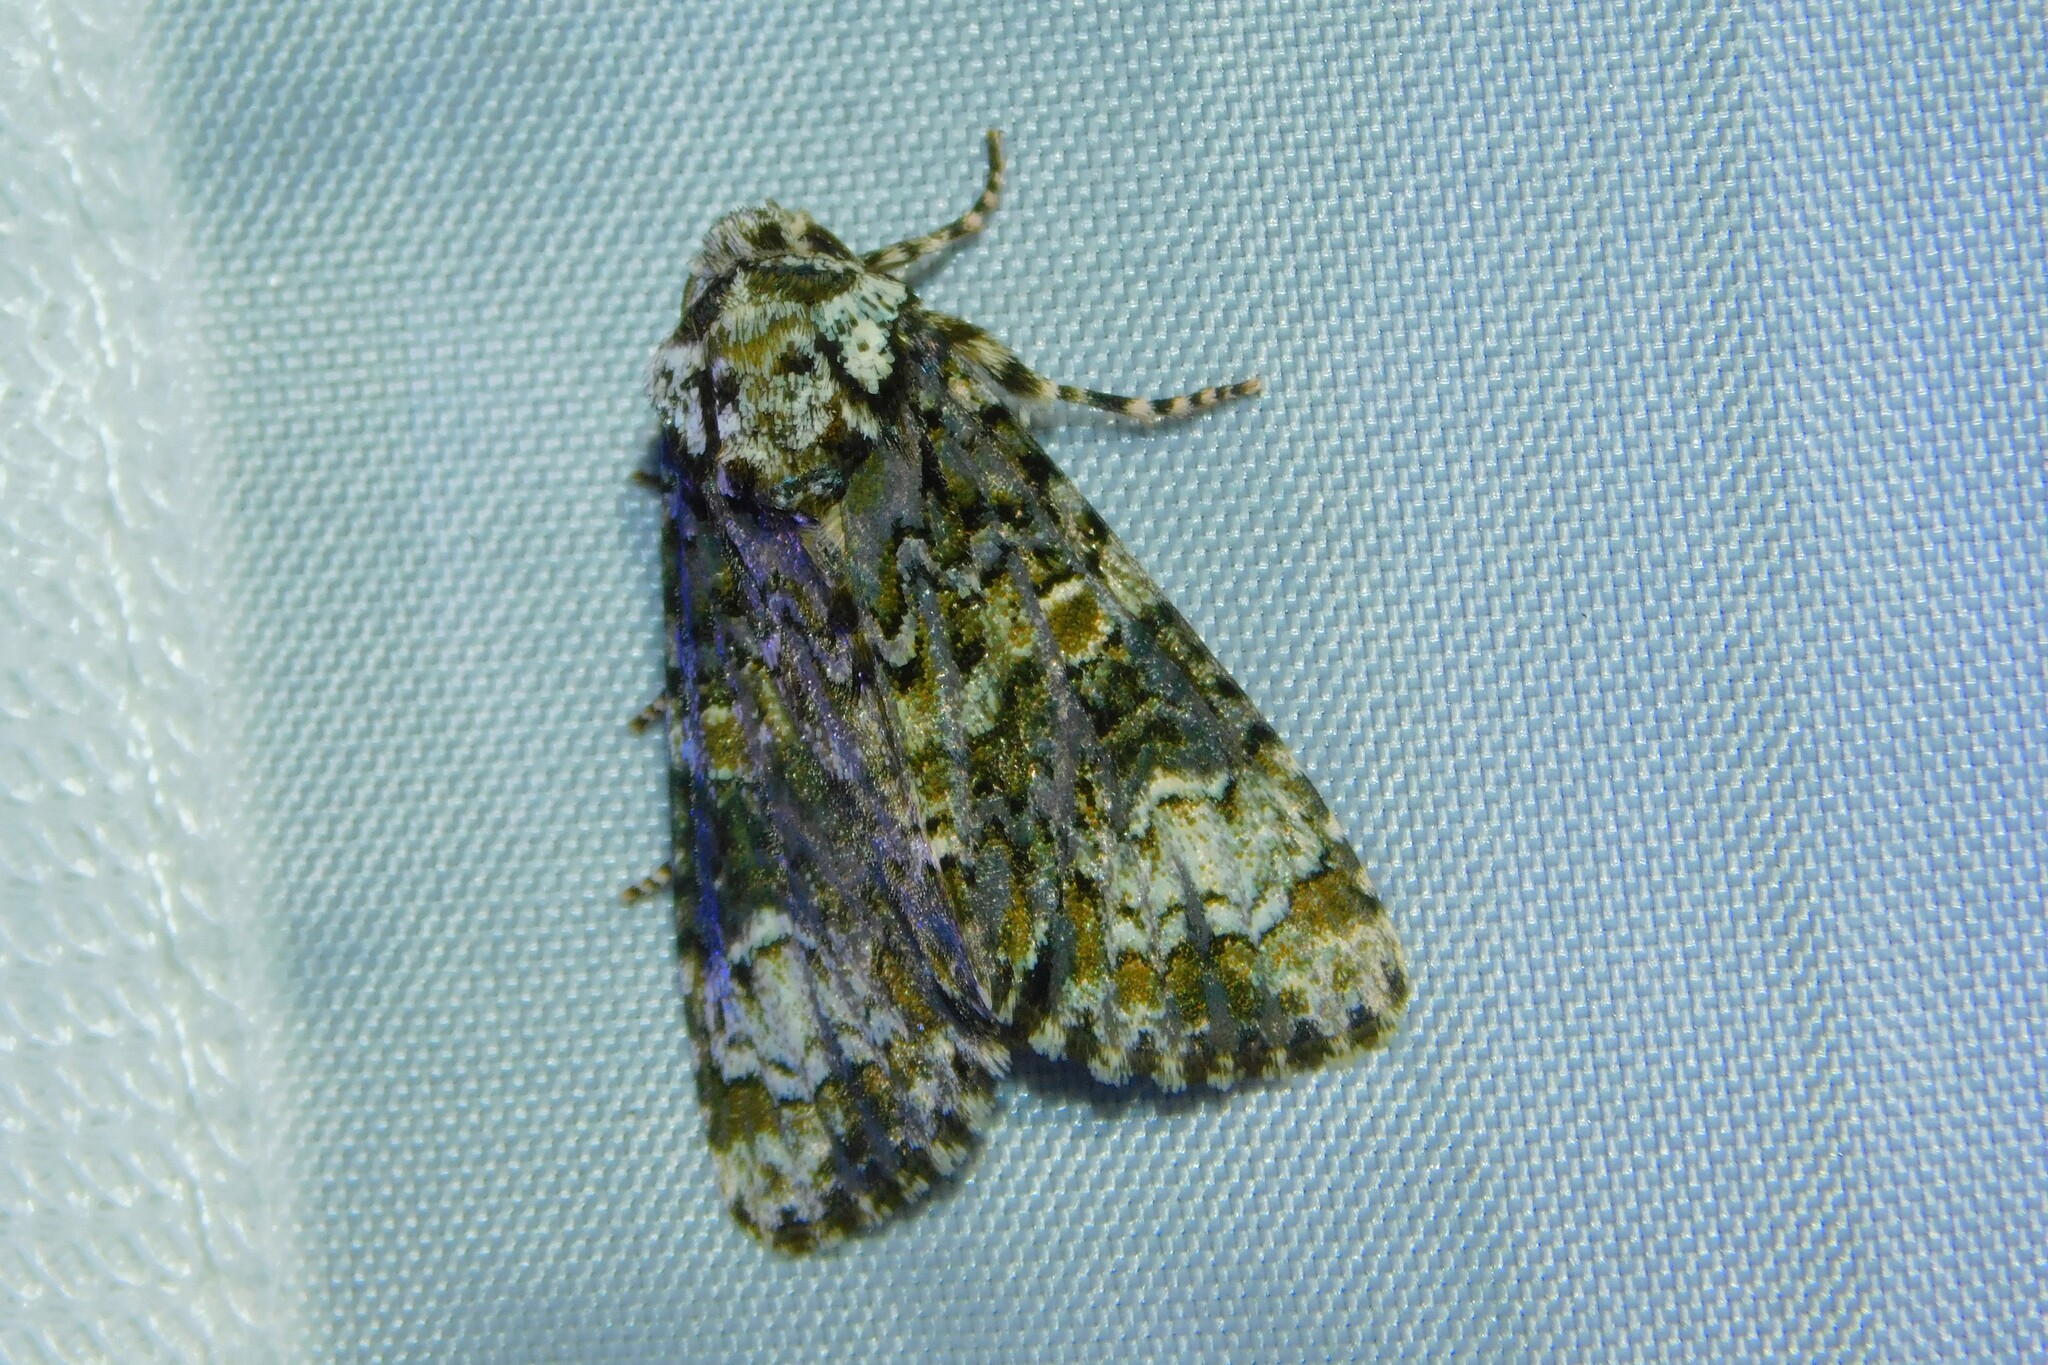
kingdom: Animalia
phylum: Arthropoda
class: Insecta
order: Lepidoptera
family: Noctuidae
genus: Craniophora
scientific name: Craniophora ligustri
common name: Coronet
